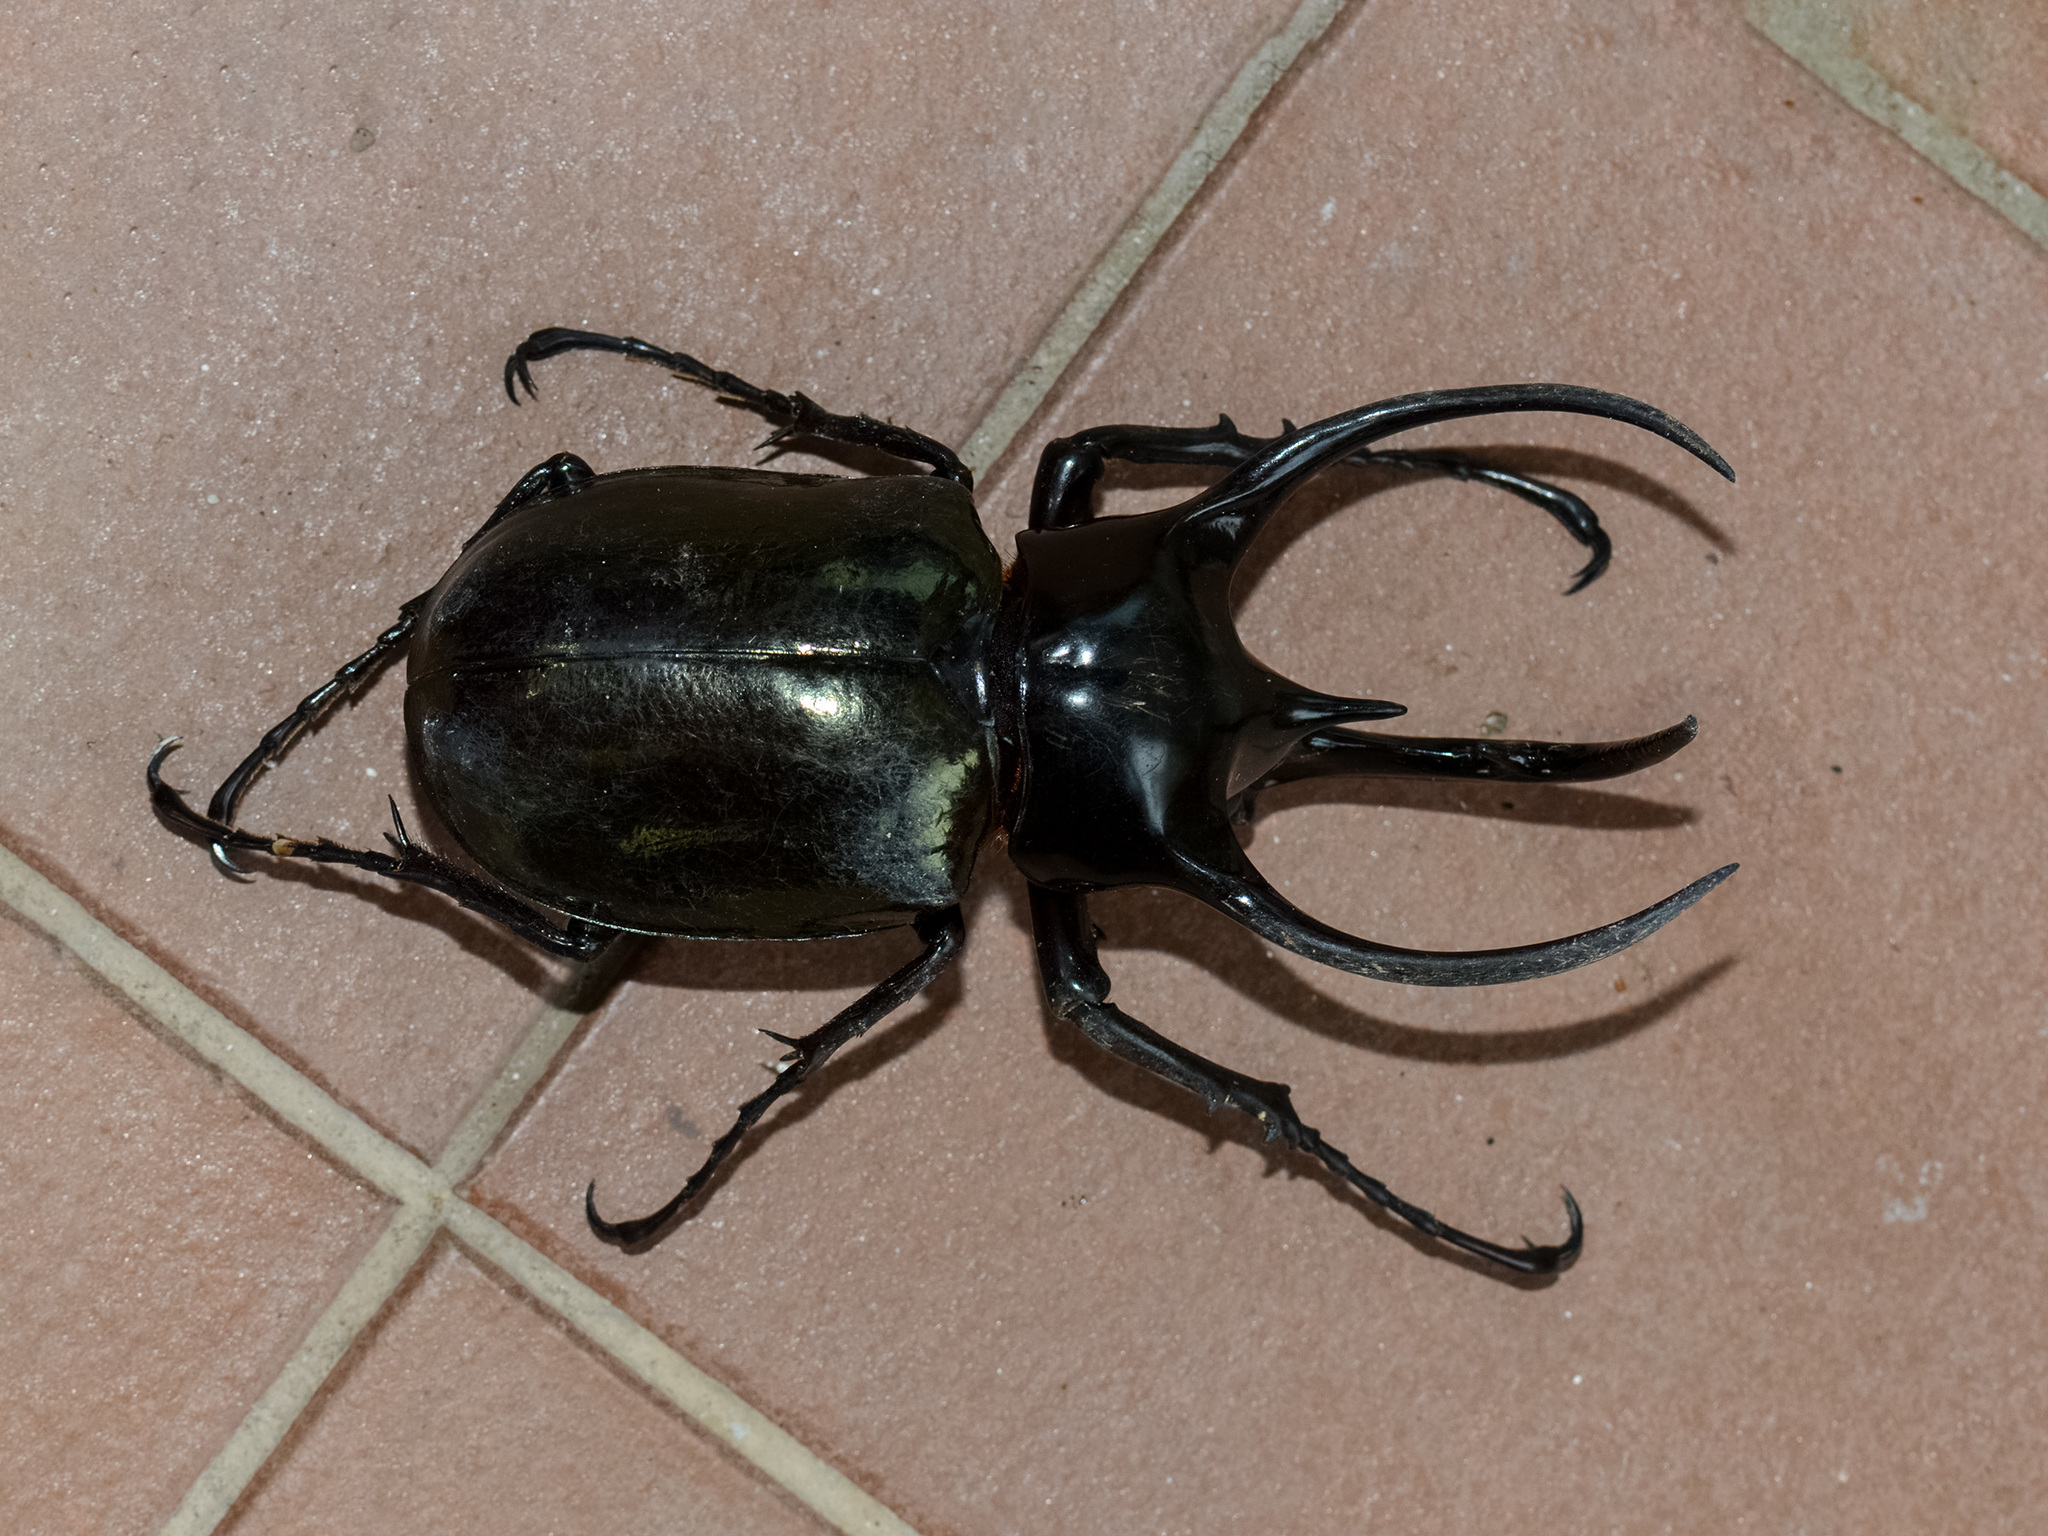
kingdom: Animalia
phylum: Arthropoda
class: Insecta
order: Coleoptera
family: Scarabaeidae
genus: Chalcosoma
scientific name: Chalcosoma chiron
